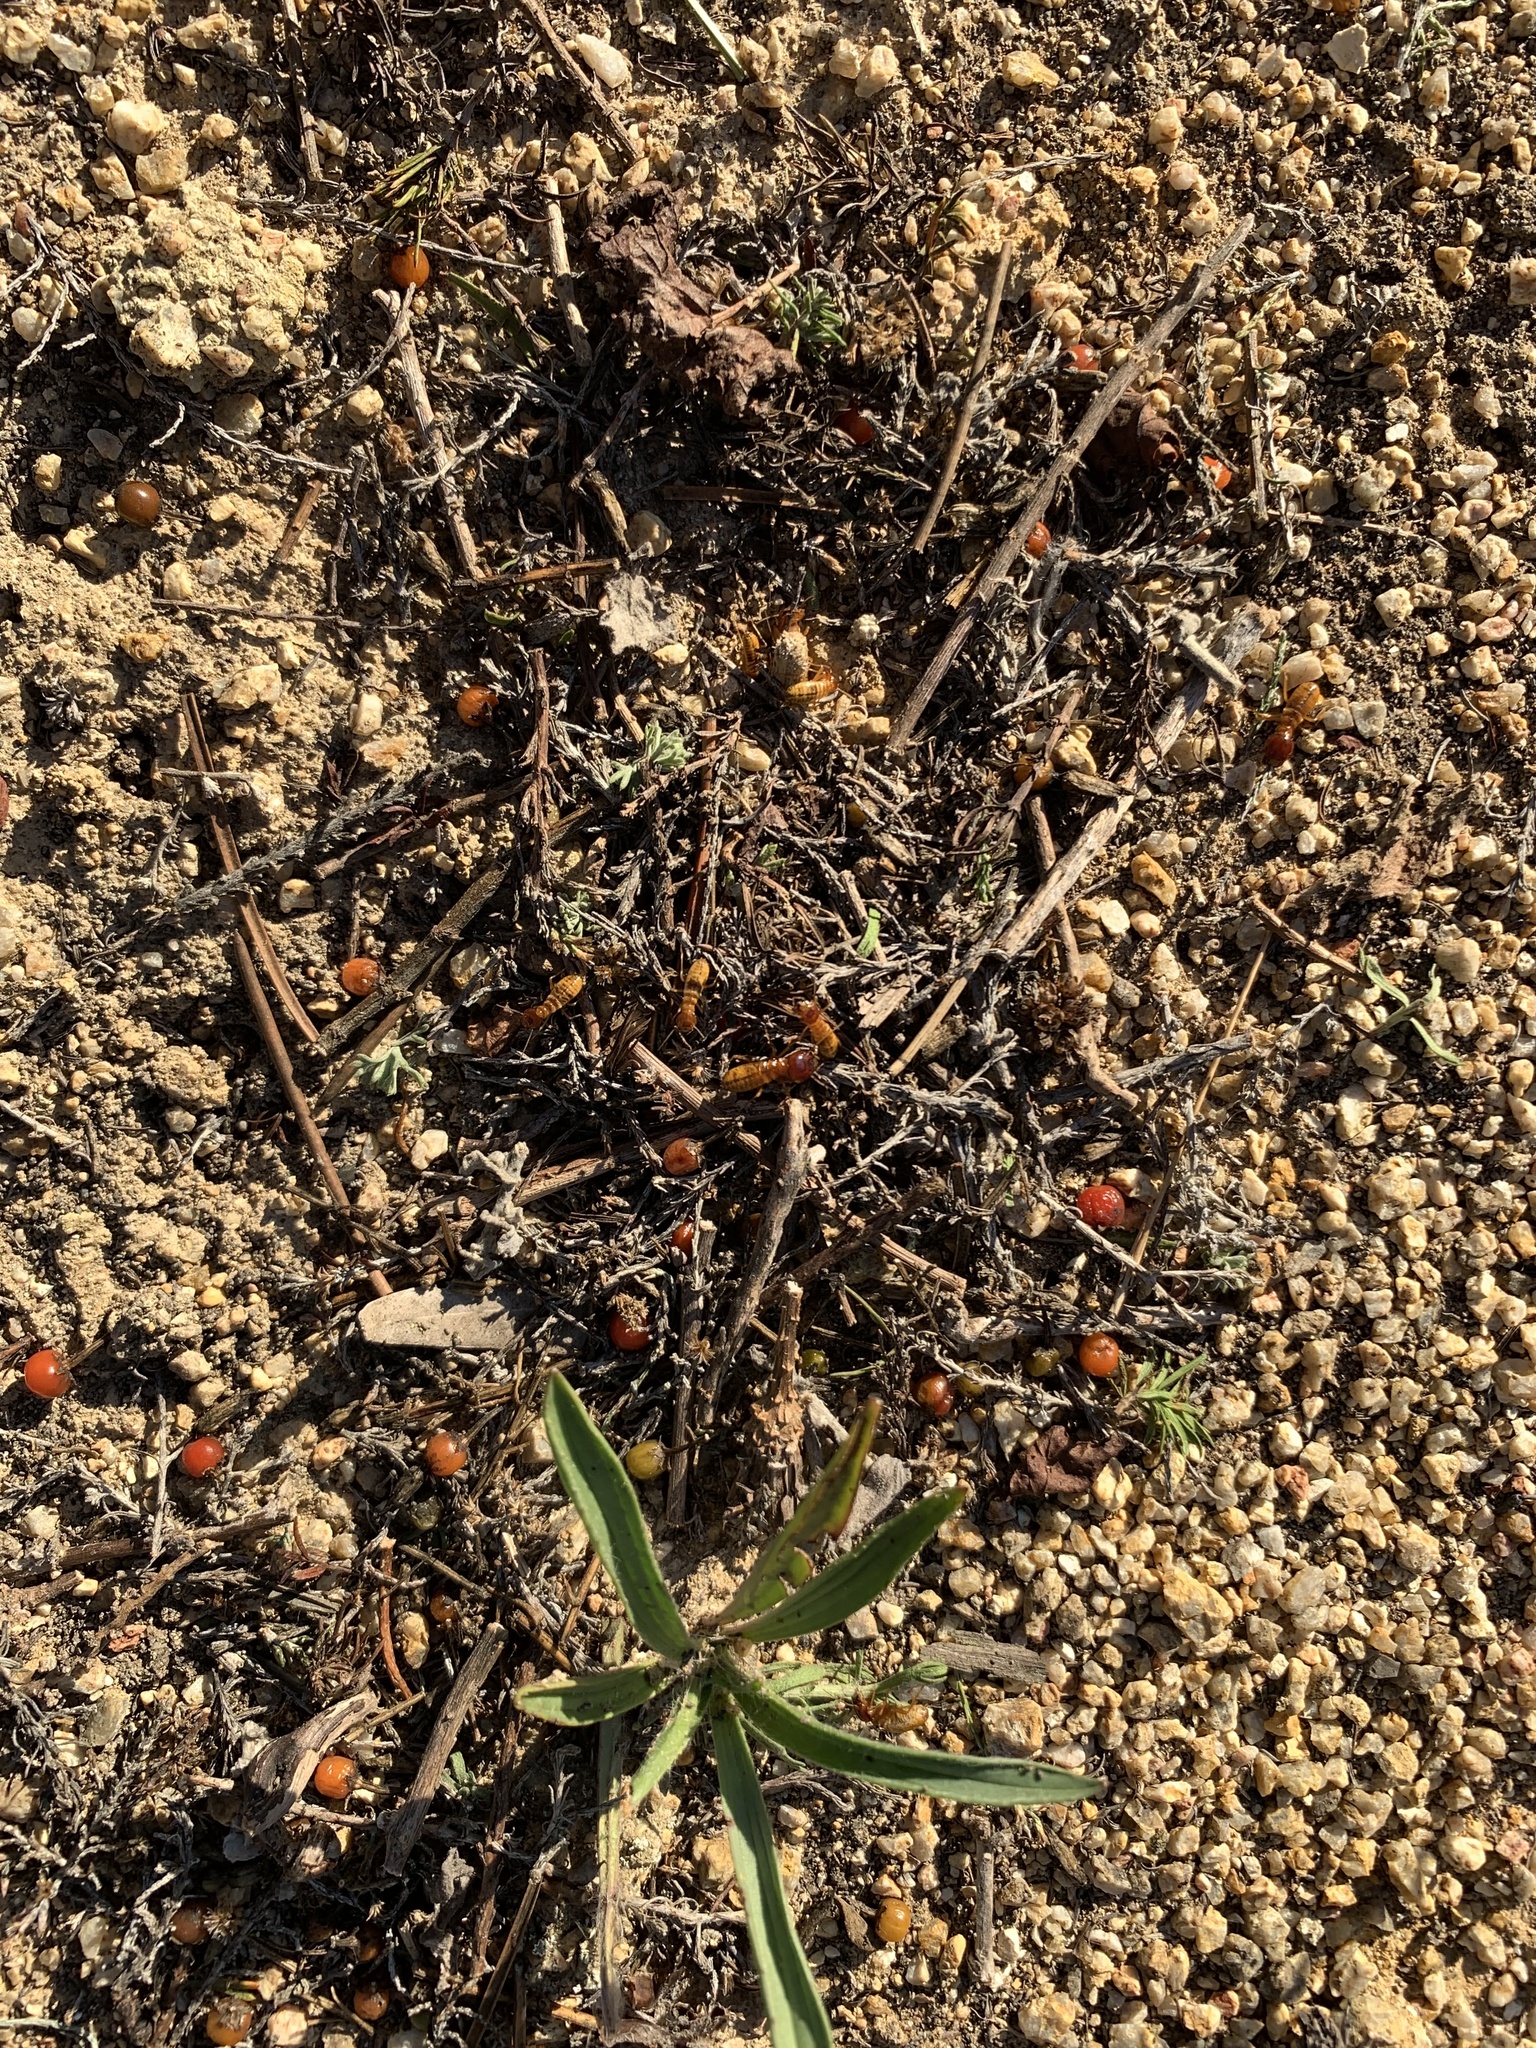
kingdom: Animalia
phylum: Arthropoda
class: Insecta
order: Blattodea
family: Hodotermitidae
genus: Microhodotermes
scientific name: Microhodotermes viator
